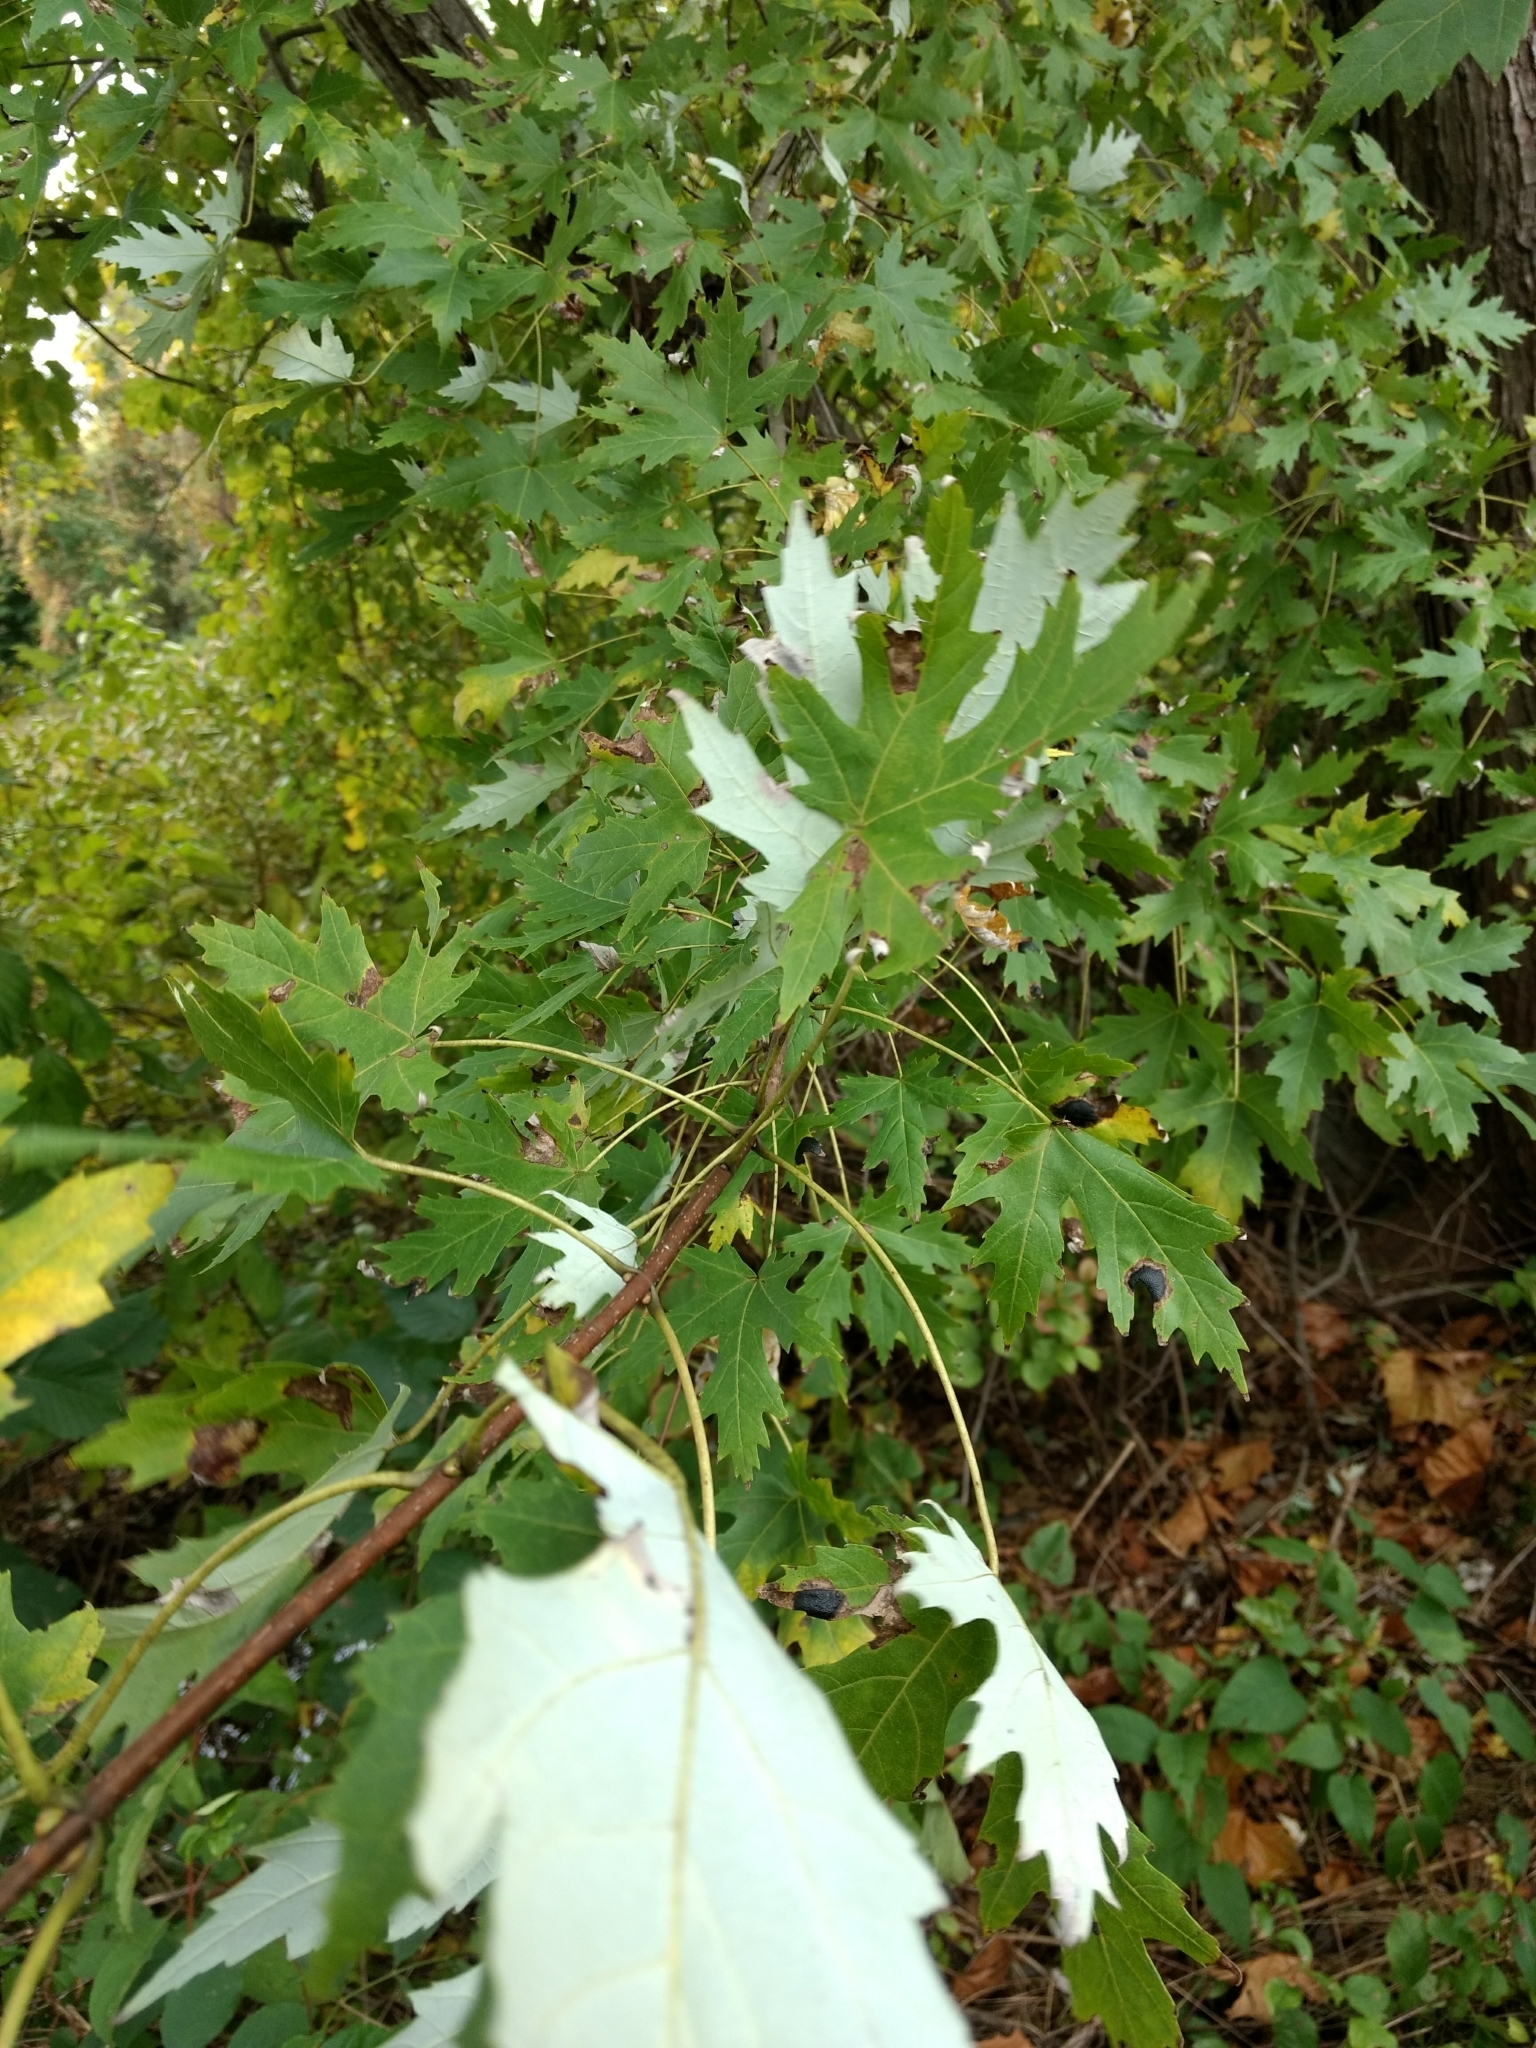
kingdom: Plantae
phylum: Tracheophyta
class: Magnoliopsida
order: Sapindales
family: Sapindaceae
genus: Acer
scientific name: Acer saccharinum
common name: Silver maple
